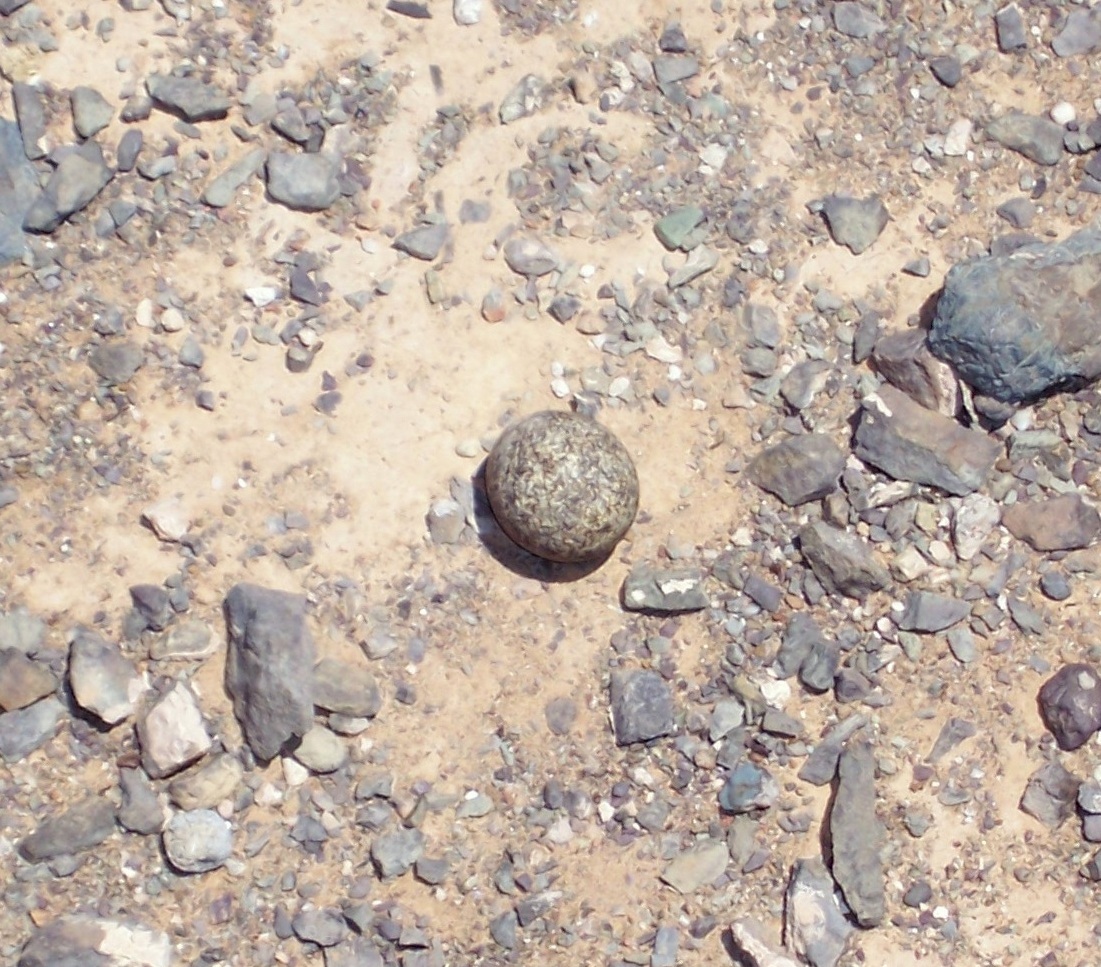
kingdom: Animalia
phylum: Chordata
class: Aves
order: Charadriiformes
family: Glareolidae
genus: Rhinoptilus
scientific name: Rhinoptilus africanus
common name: Double-banded courser
